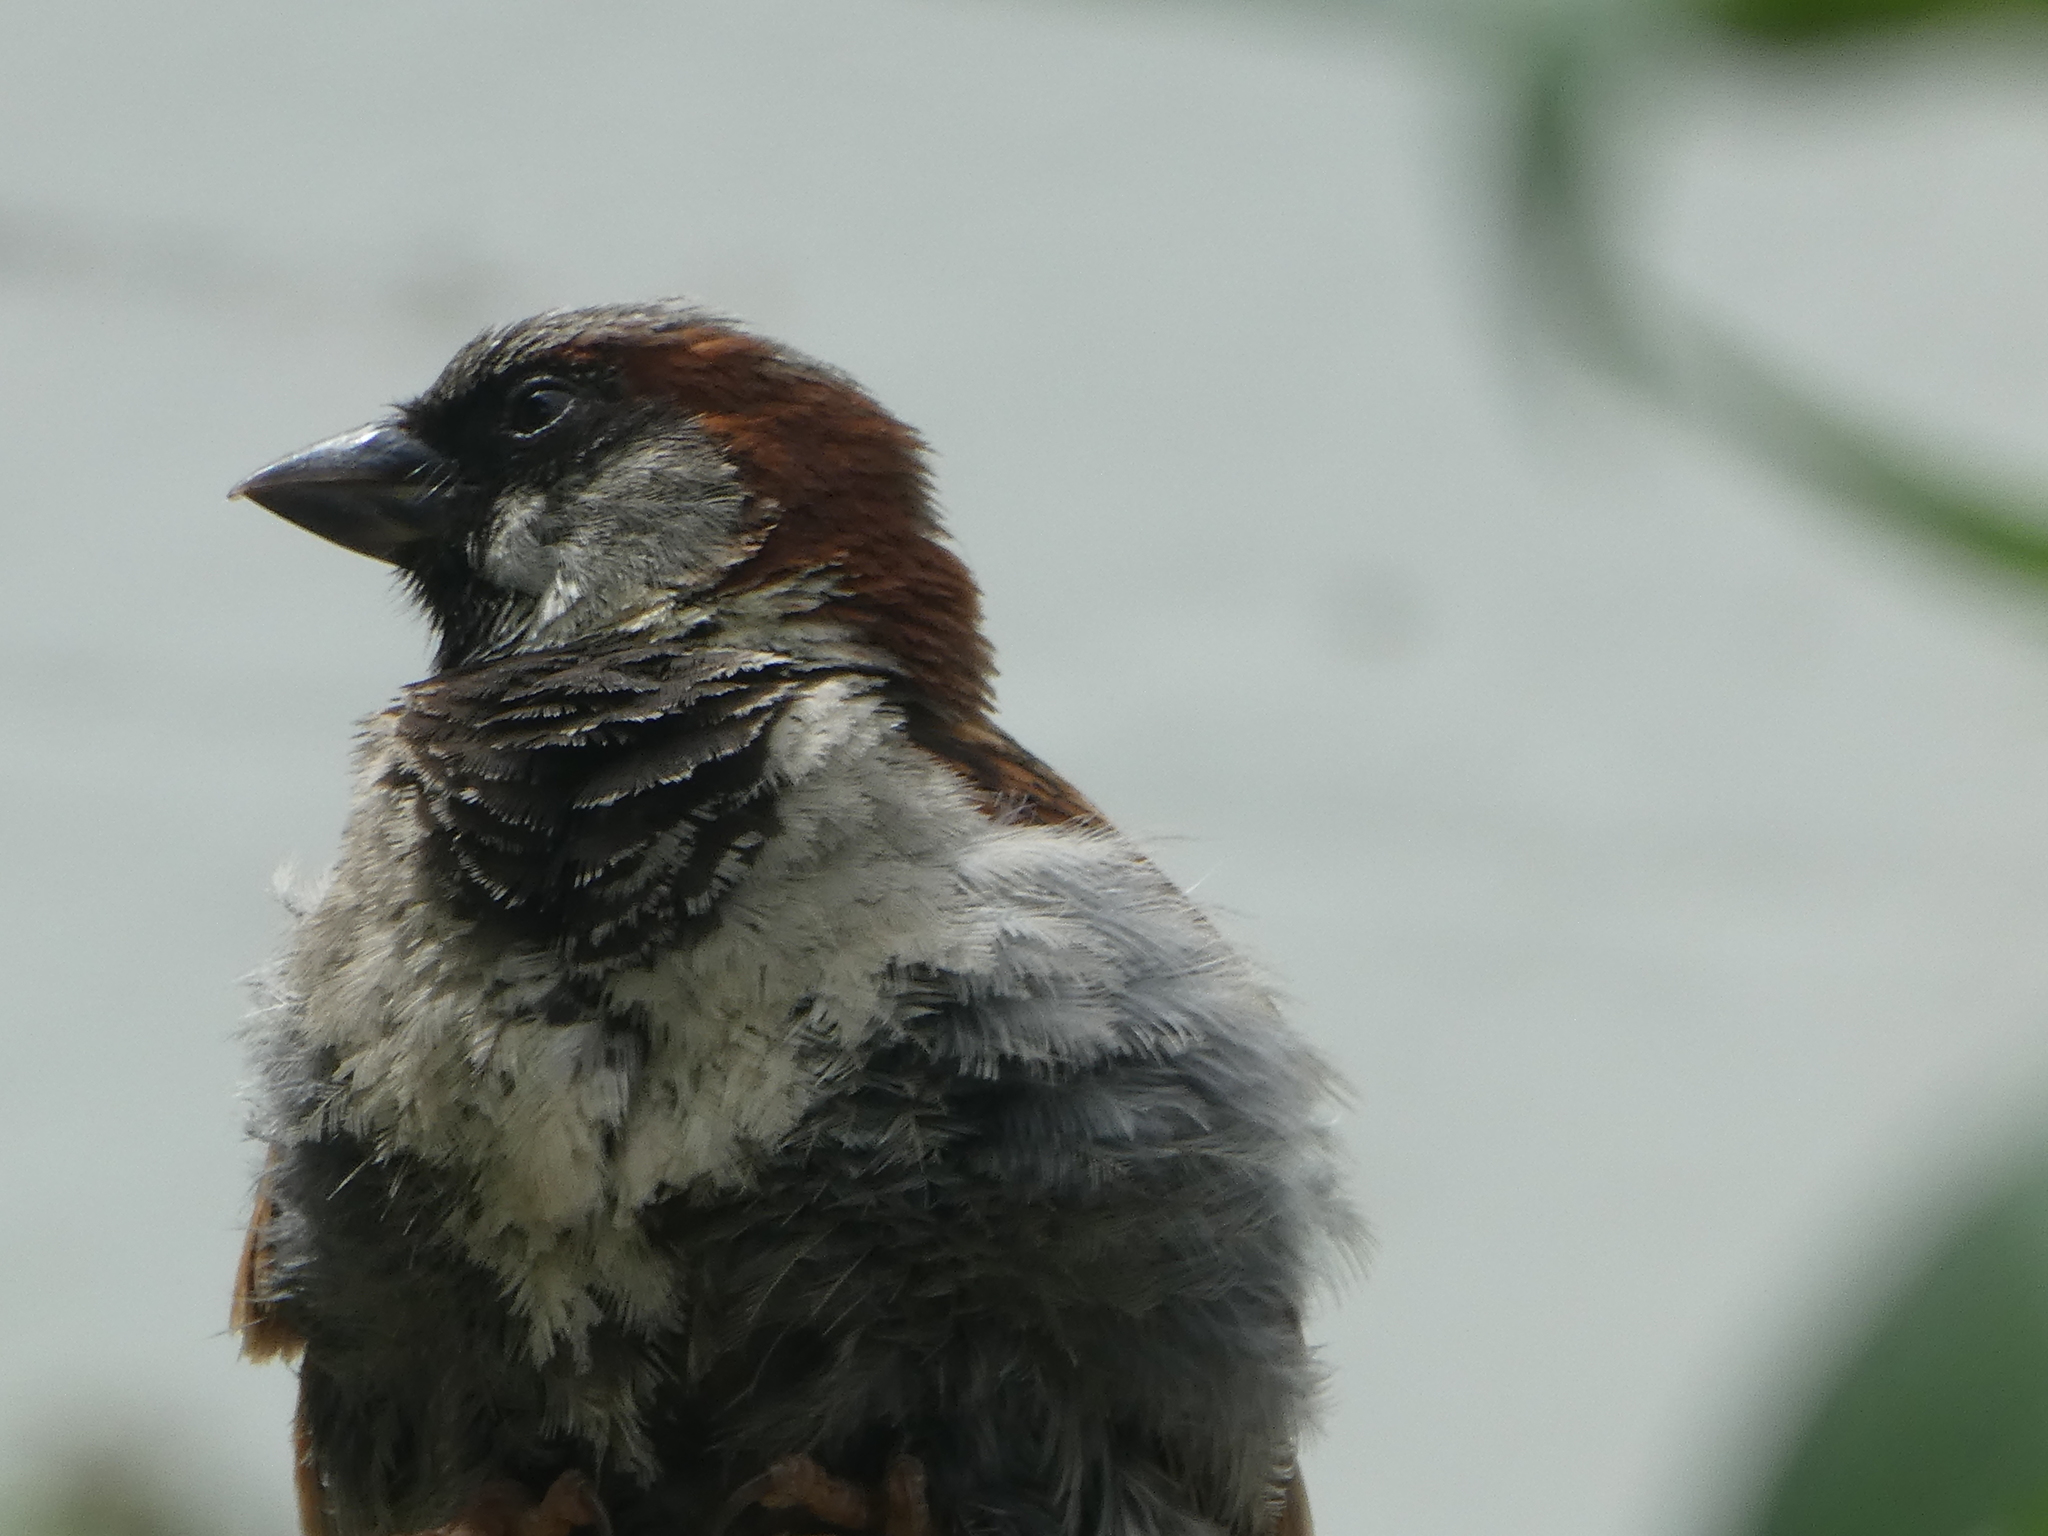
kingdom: Animalia
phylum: Chordata
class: Aves
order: Passeriformes
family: Passeridae
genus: Passer
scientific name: Passer domesticus
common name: House sparrow
